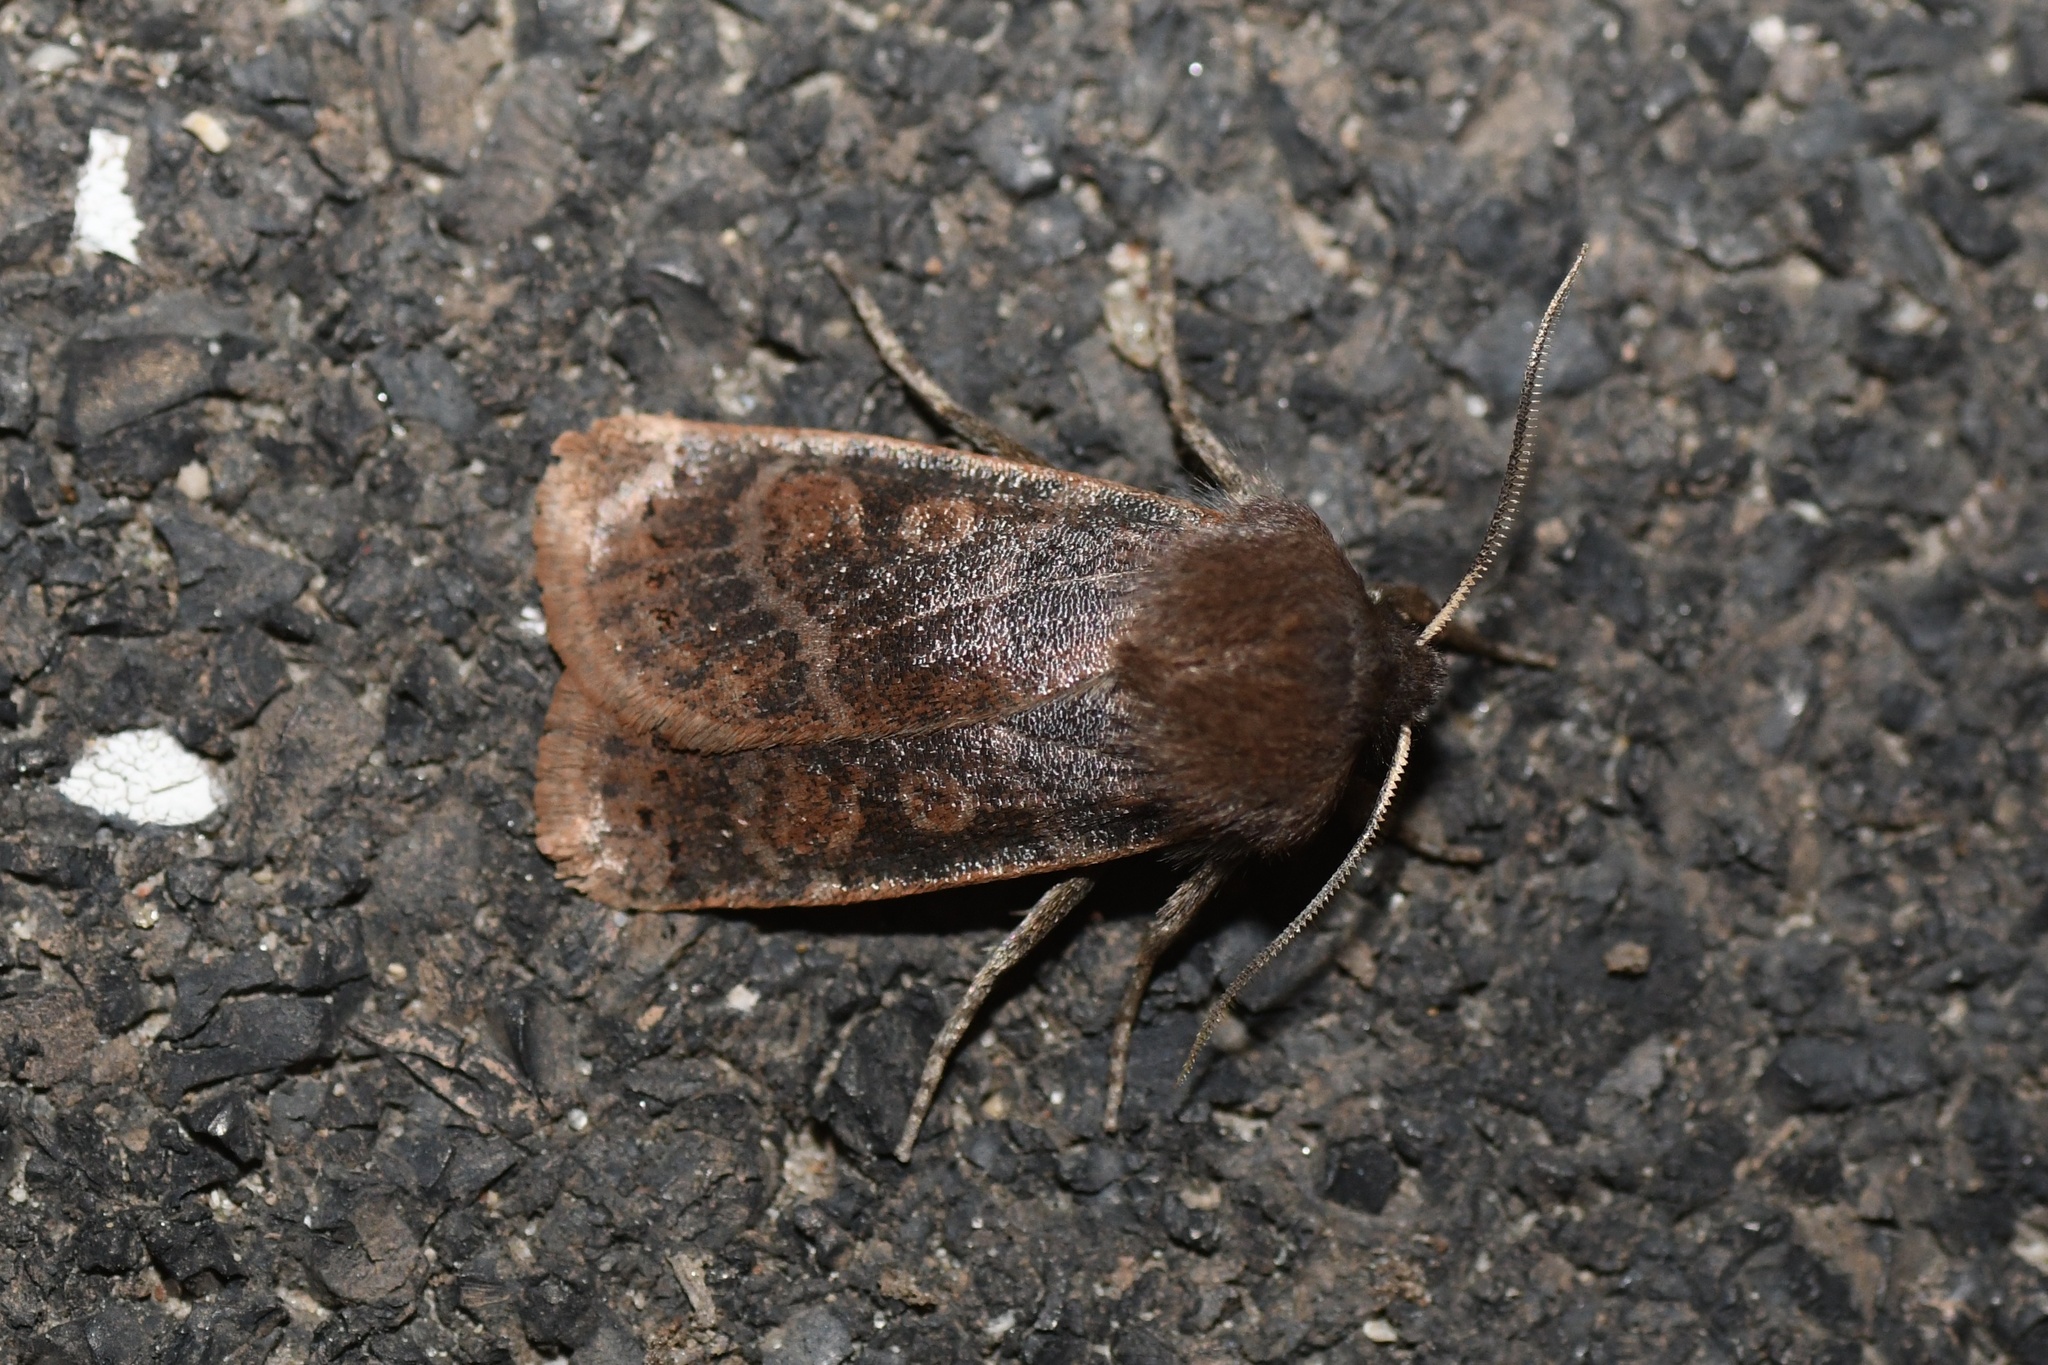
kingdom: Animalia
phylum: Arthropoda
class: Insecta
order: Lepidoptera
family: Noctuidae
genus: Homoglaea
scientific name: Homoglaea hircina
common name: Goat sallow
